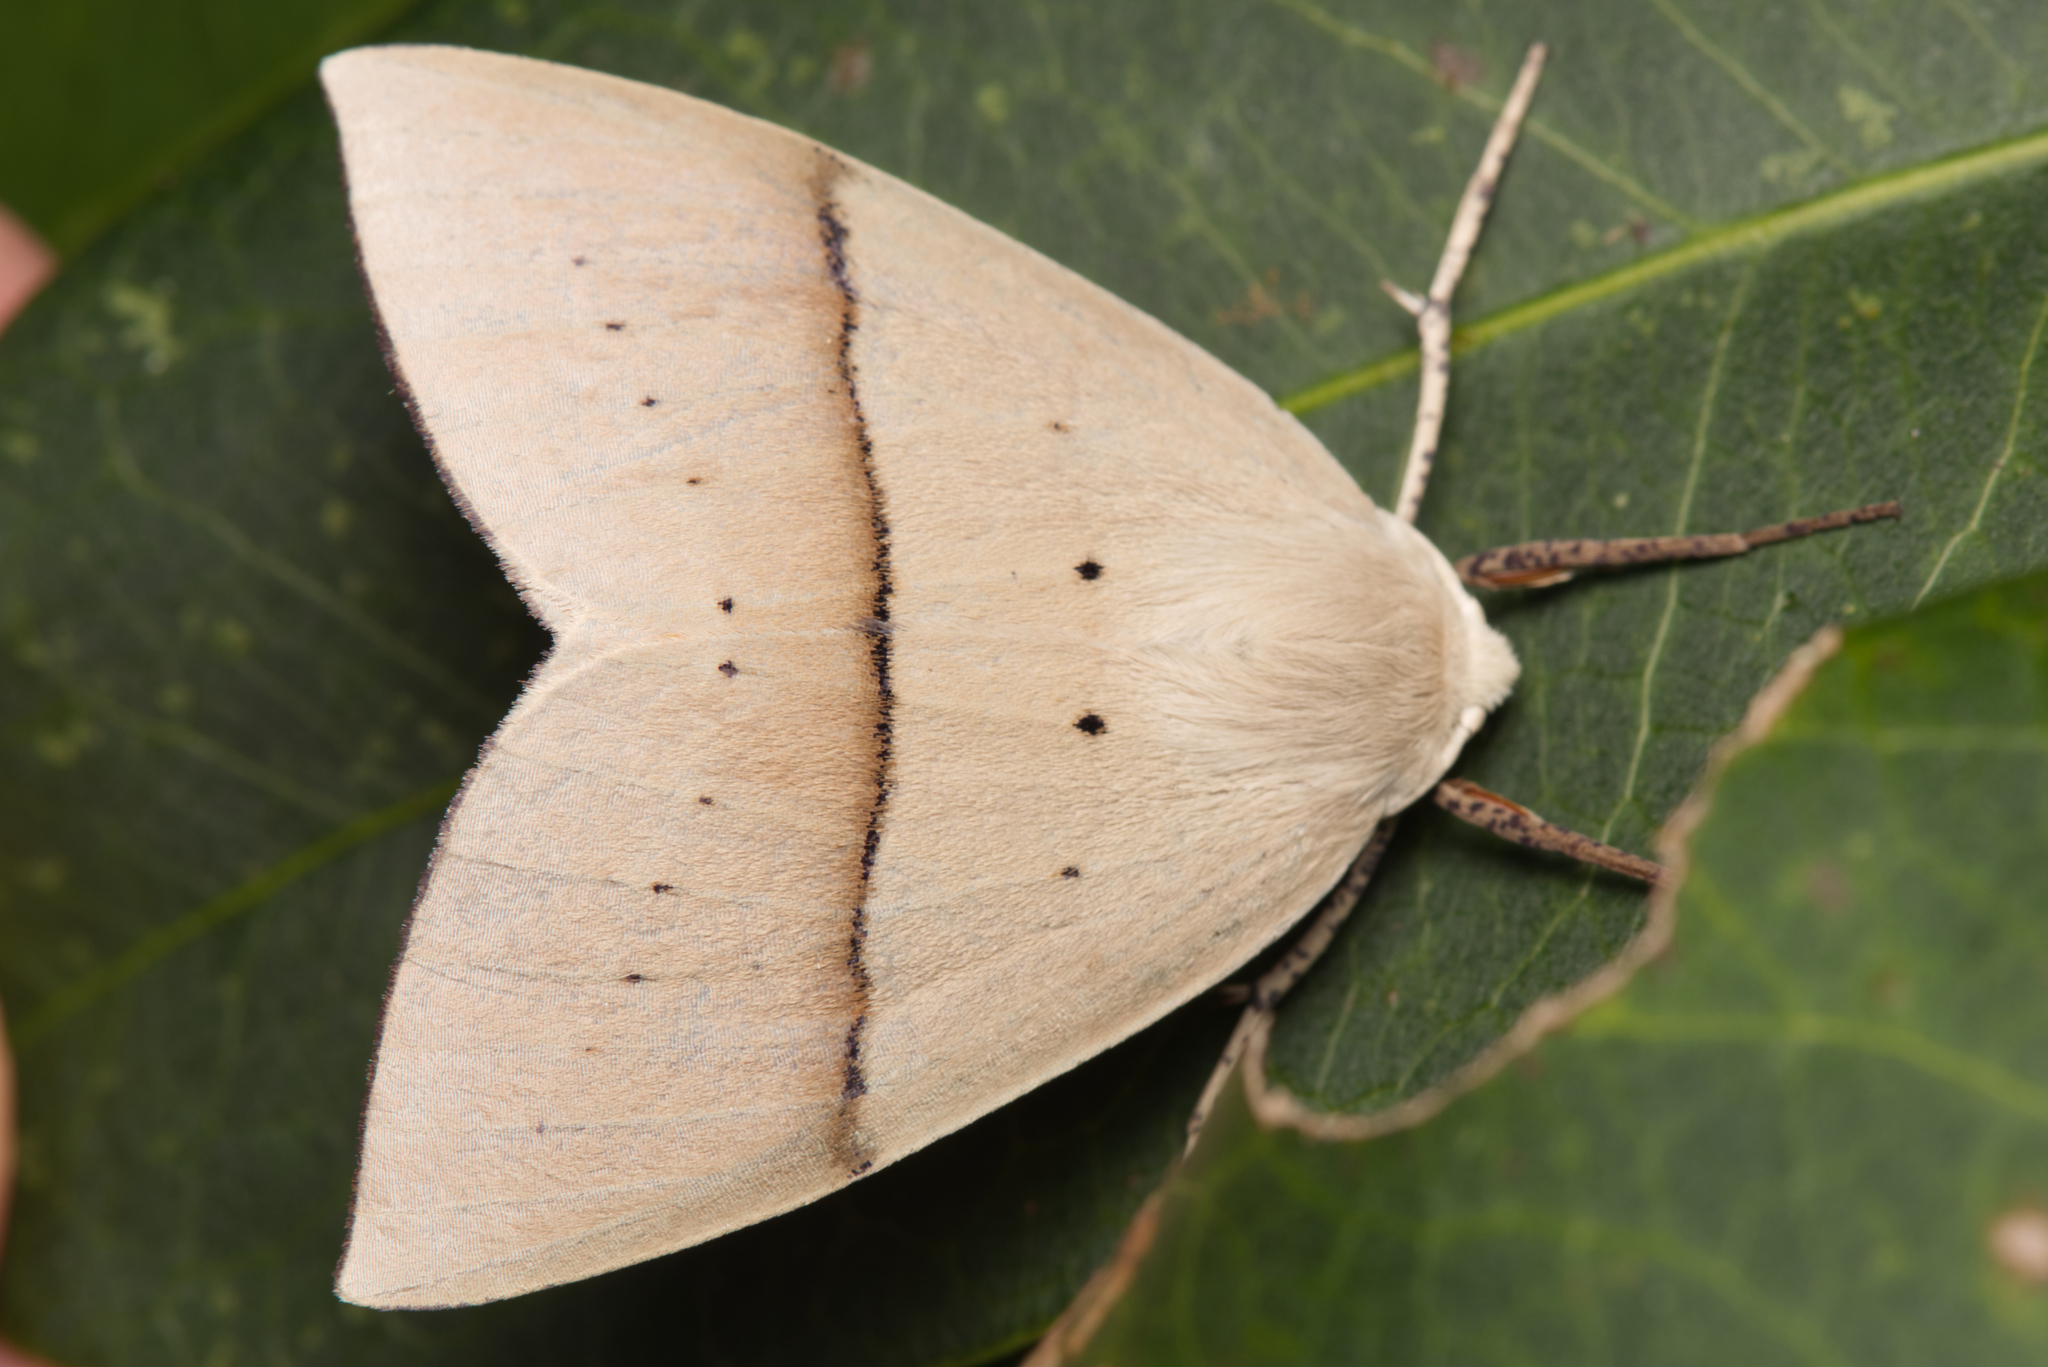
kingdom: Animalia
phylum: Arthropoda
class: Insecta
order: Lepidoptera
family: Geometridae
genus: Gastrophora
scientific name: Gastrophora henricaria
